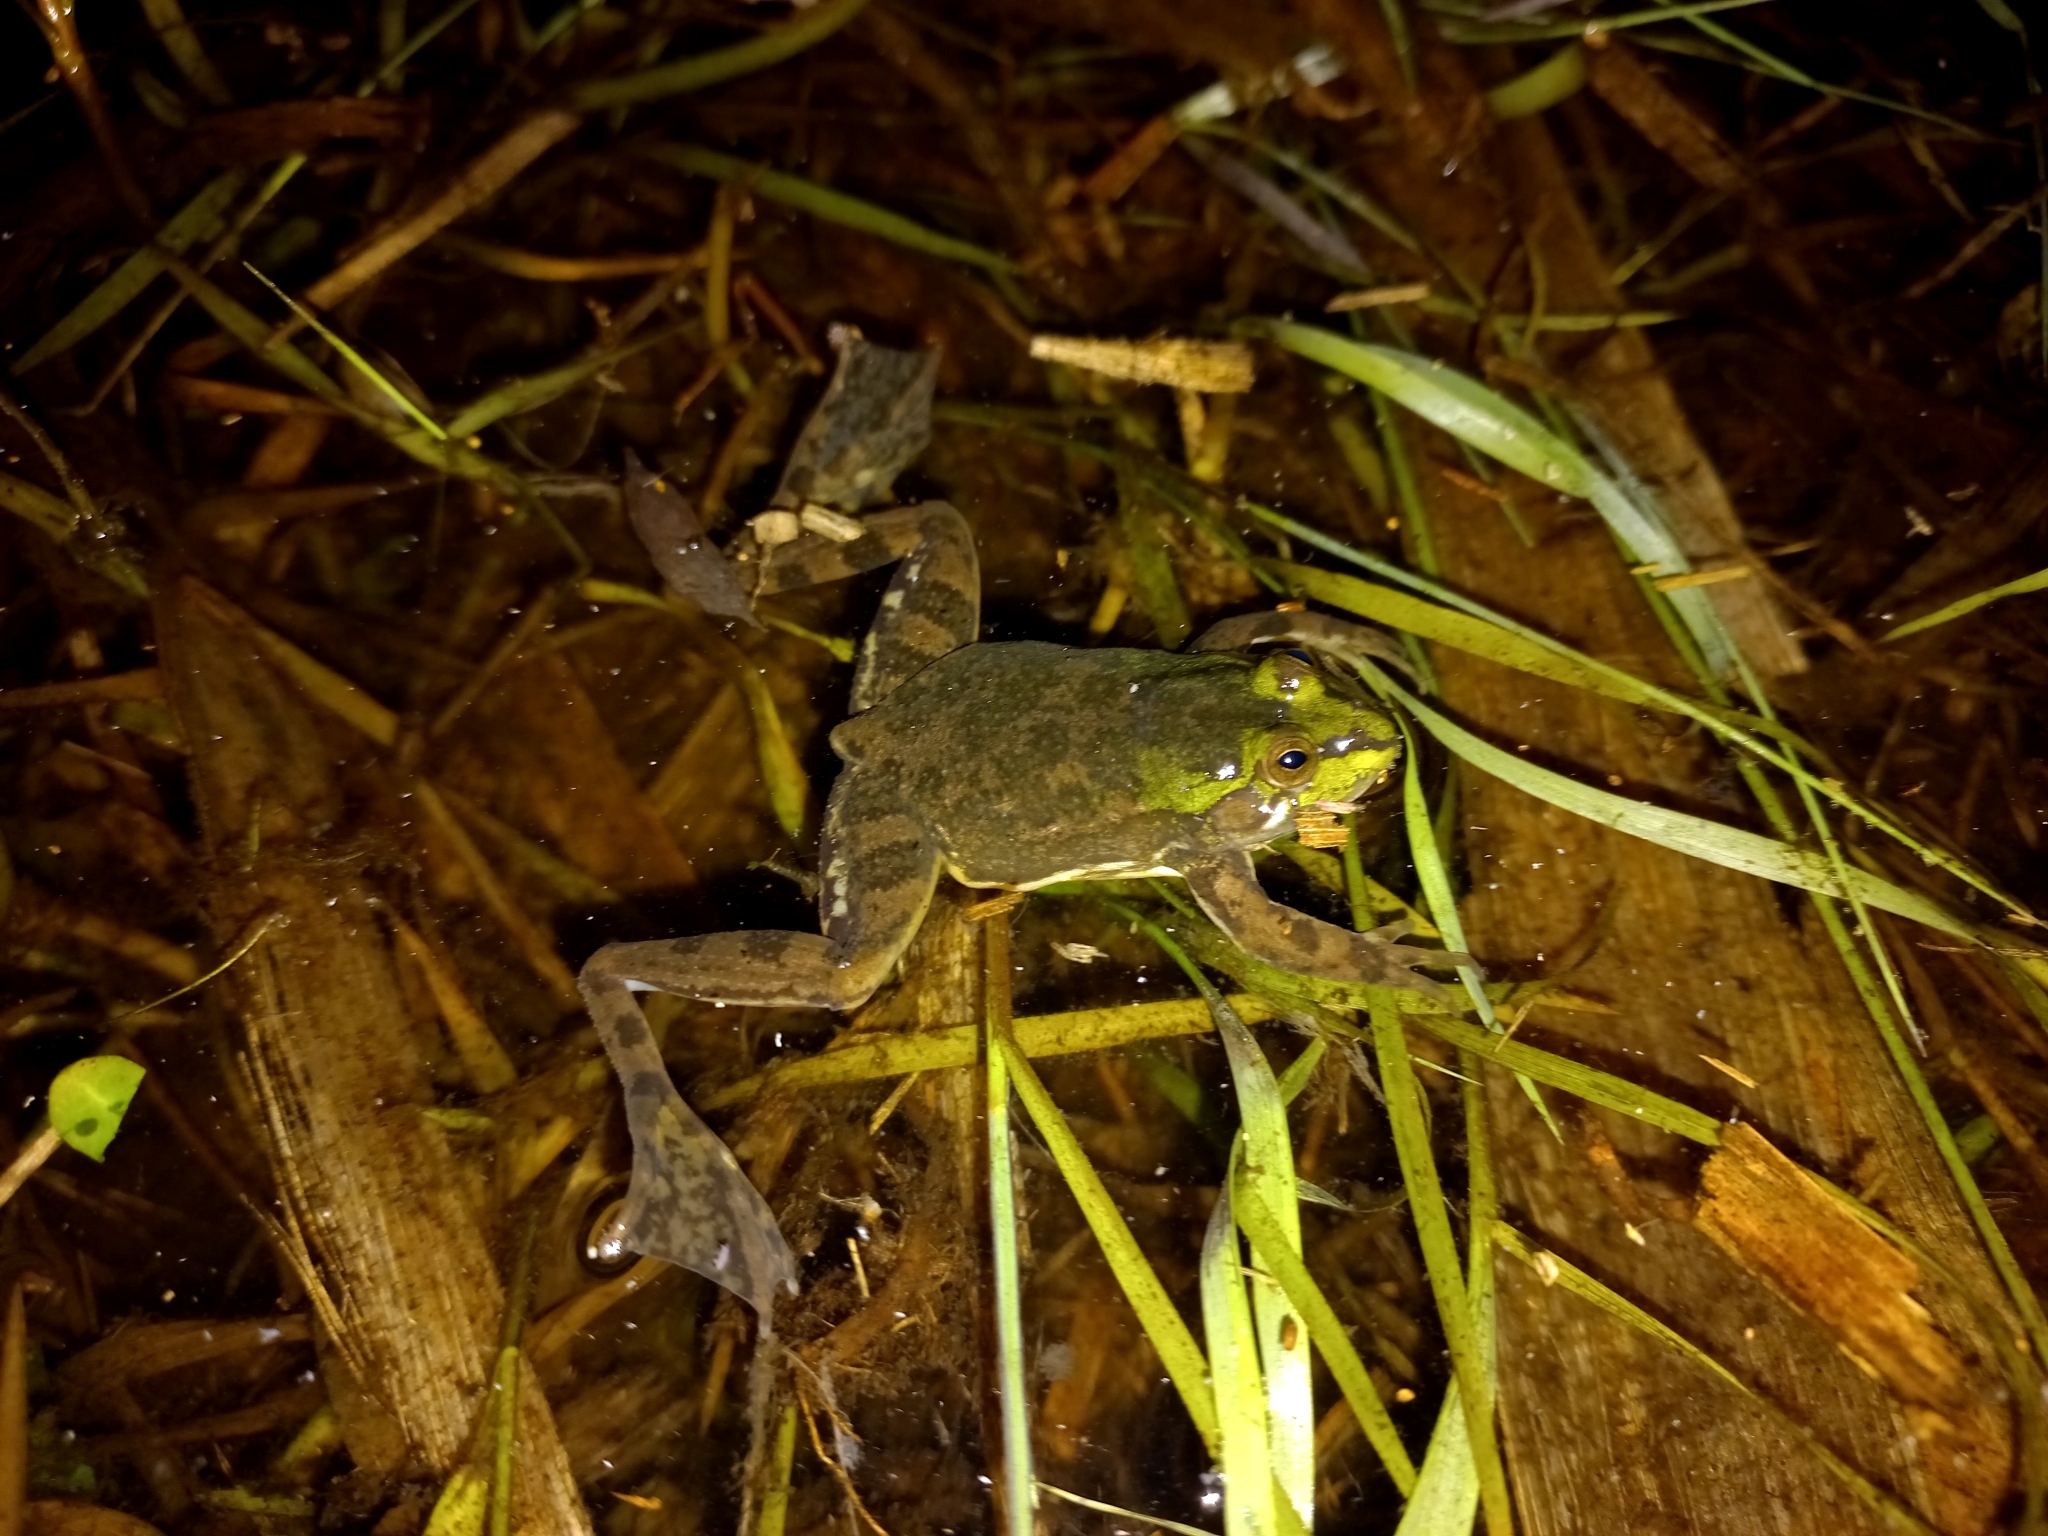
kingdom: Animalia
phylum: Chordata
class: Amphibia
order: Anura
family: Hylidae
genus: Pseudis
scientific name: Pseudis minuta
